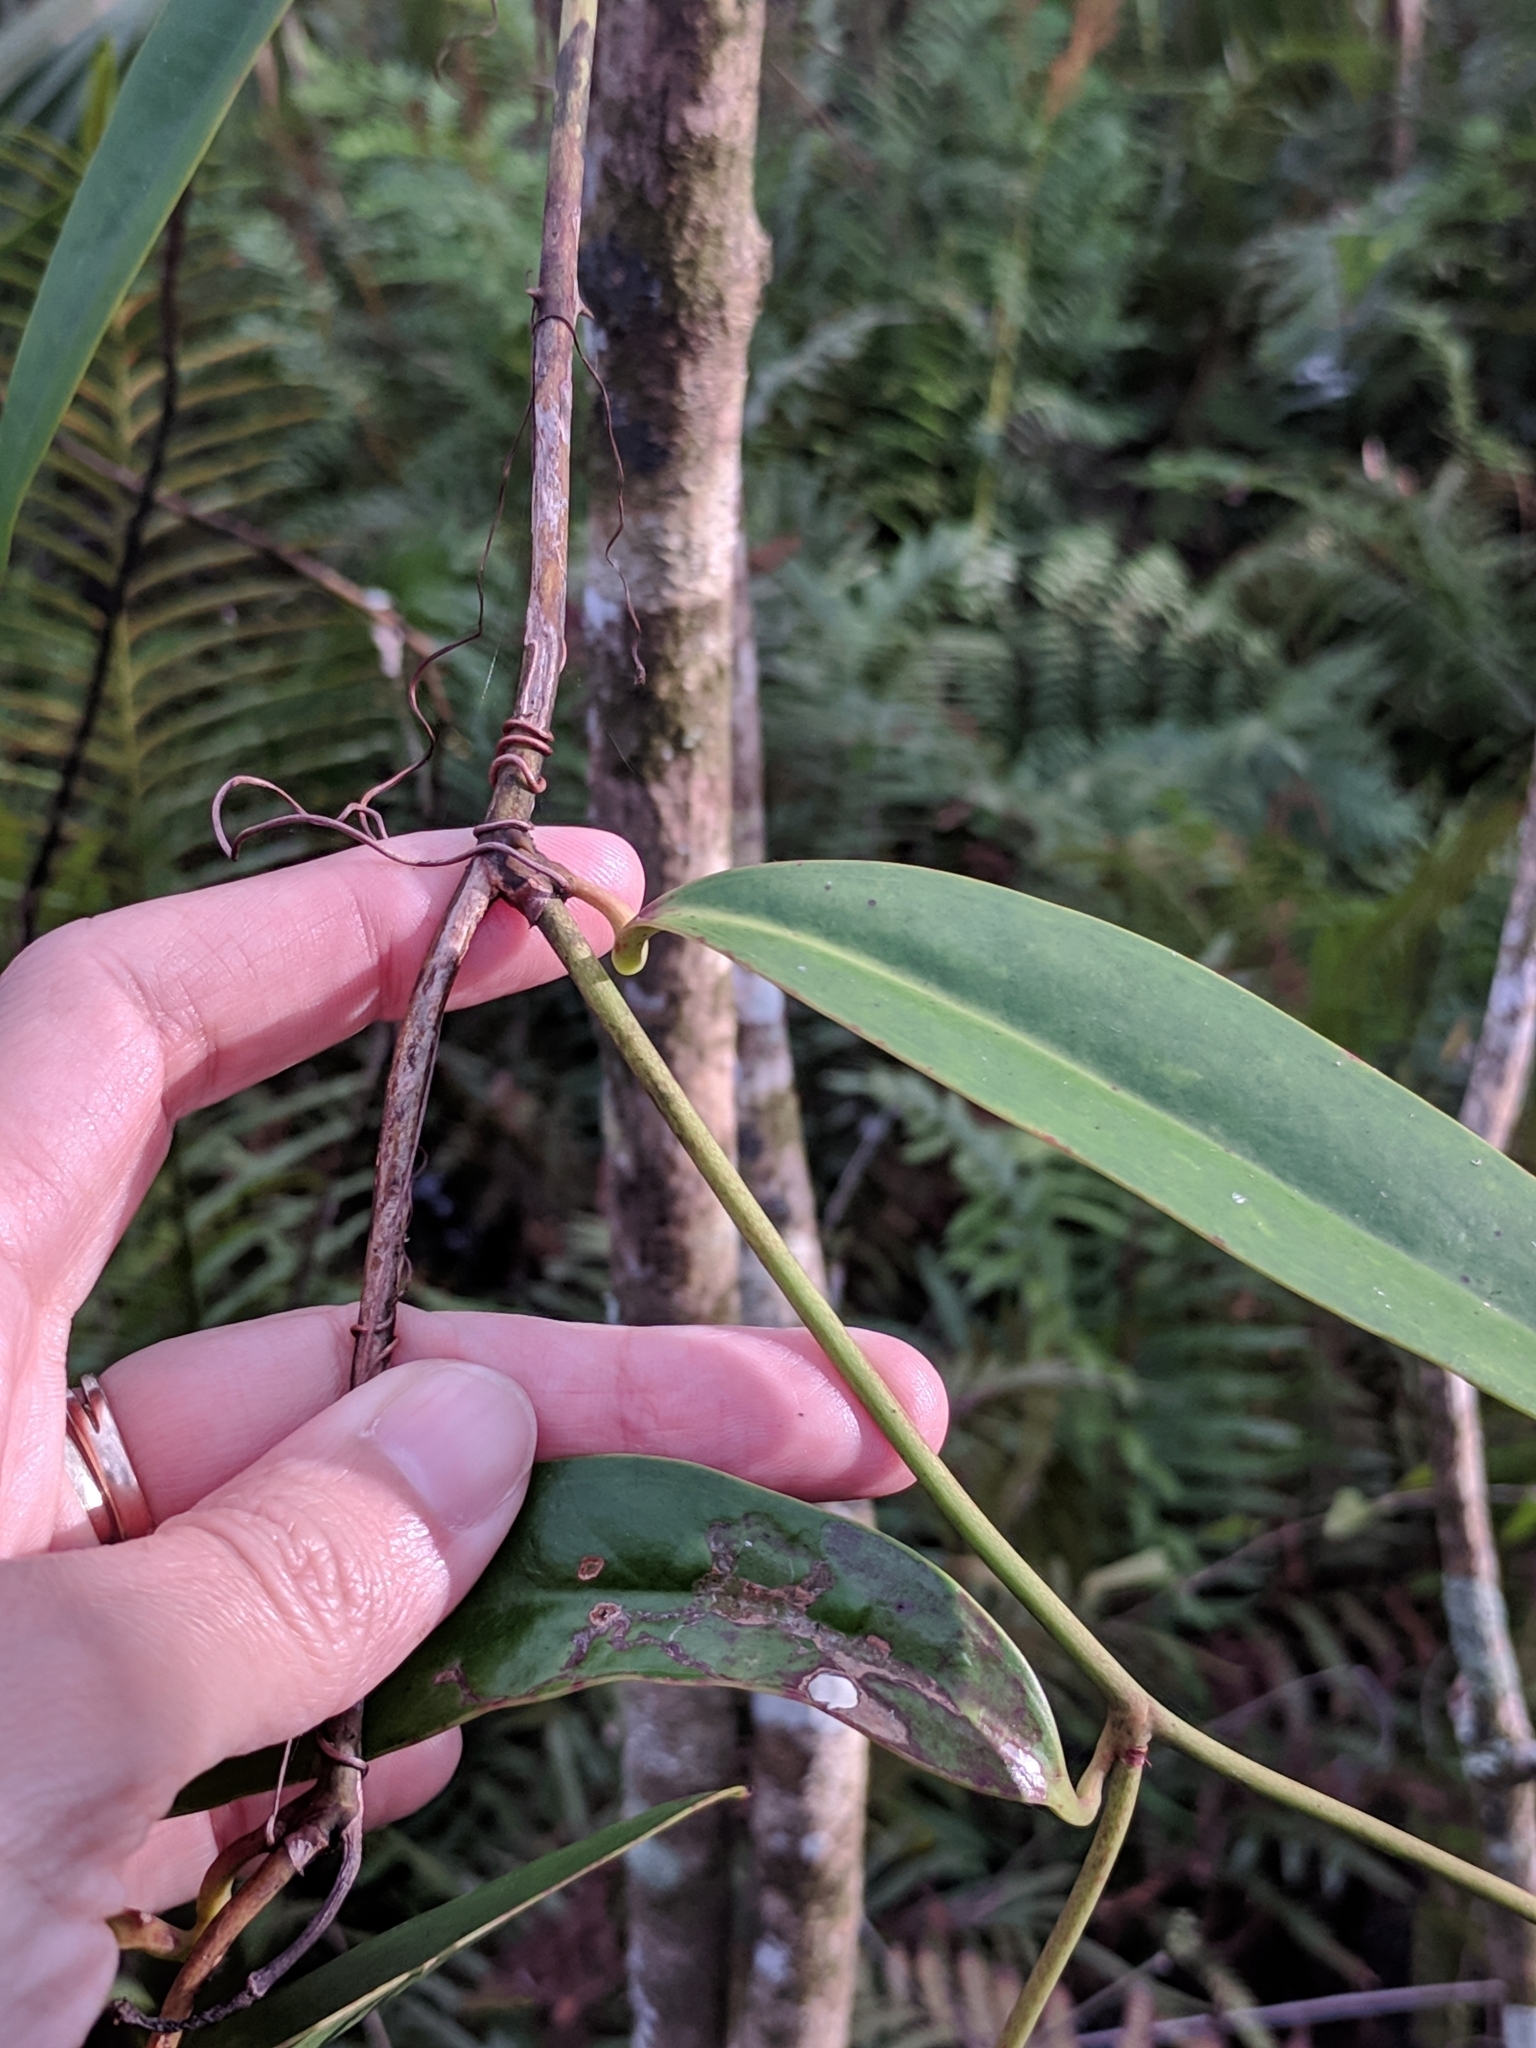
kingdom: Plantae
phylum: Tracheophyta
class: Liliopsida
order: Liliales
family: Smilacaceae
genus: Smilax
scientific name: Smilax laurifolia
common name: Bamboovine
